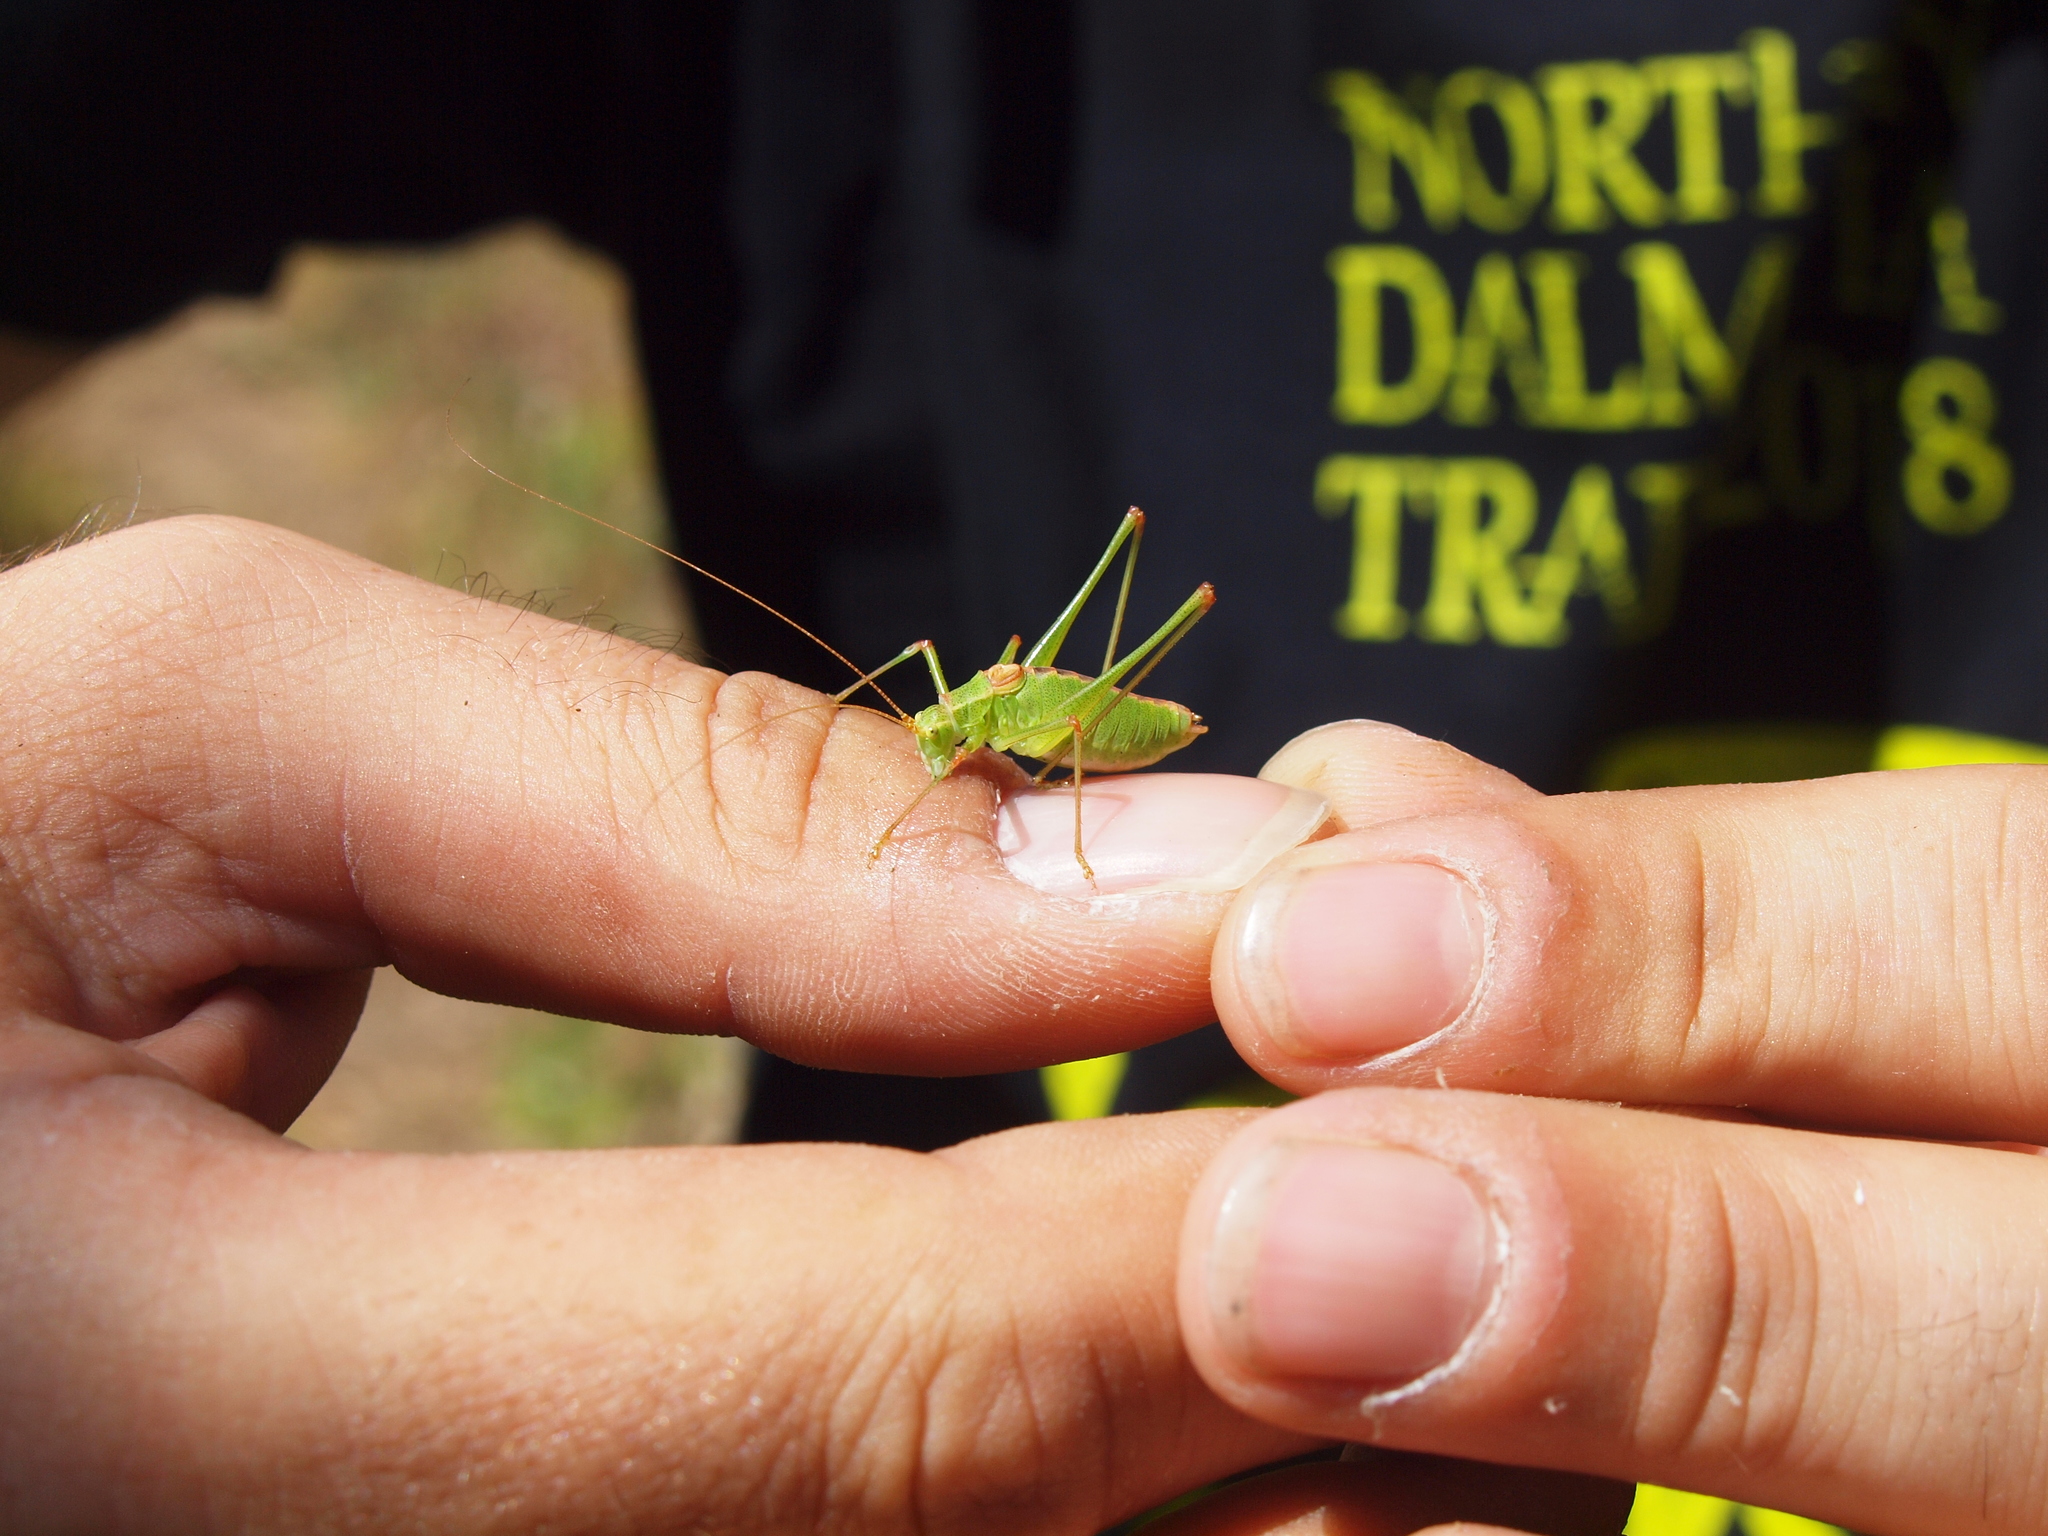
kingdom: Animalia
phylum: Arthropoda
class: Insecta
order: Orthoptera
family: Tettigoniidae
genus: Leptophyes
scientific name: Leptophyes intermedia
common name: Montenegrin speckled bush-cricket
